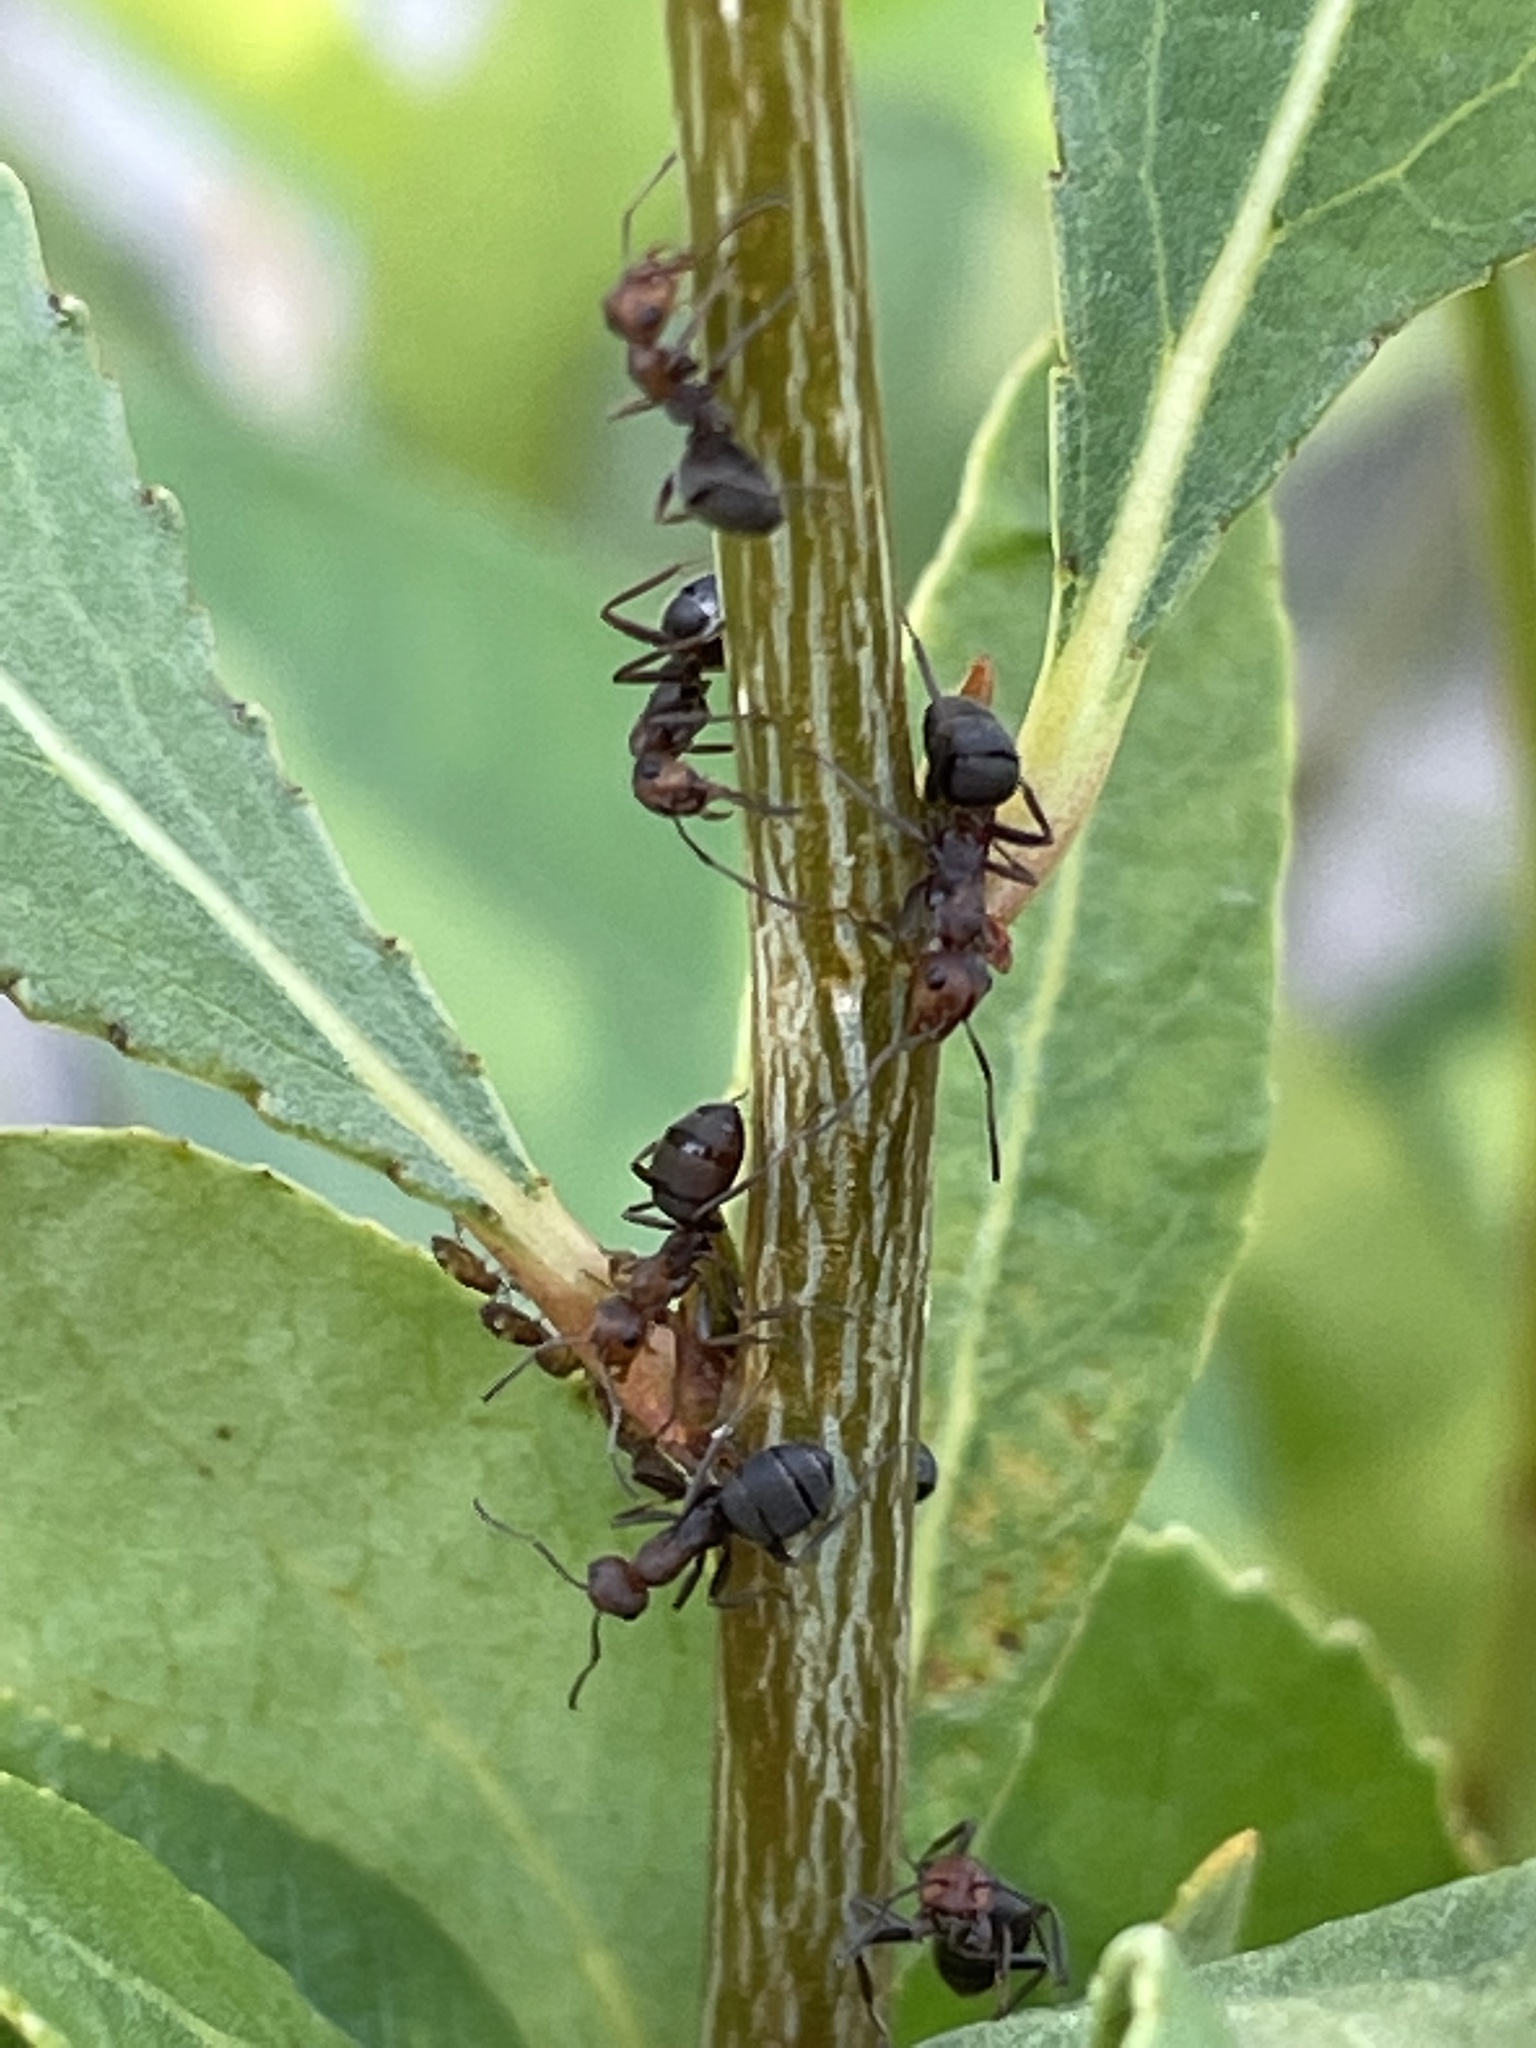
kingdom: Animalia
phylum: Arthropoda
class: Insecta
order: Hemiptera
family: Aphididae
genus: Chaitophorus
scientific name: Chaitophorus populicola
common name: Smokywinged poplar aphid
